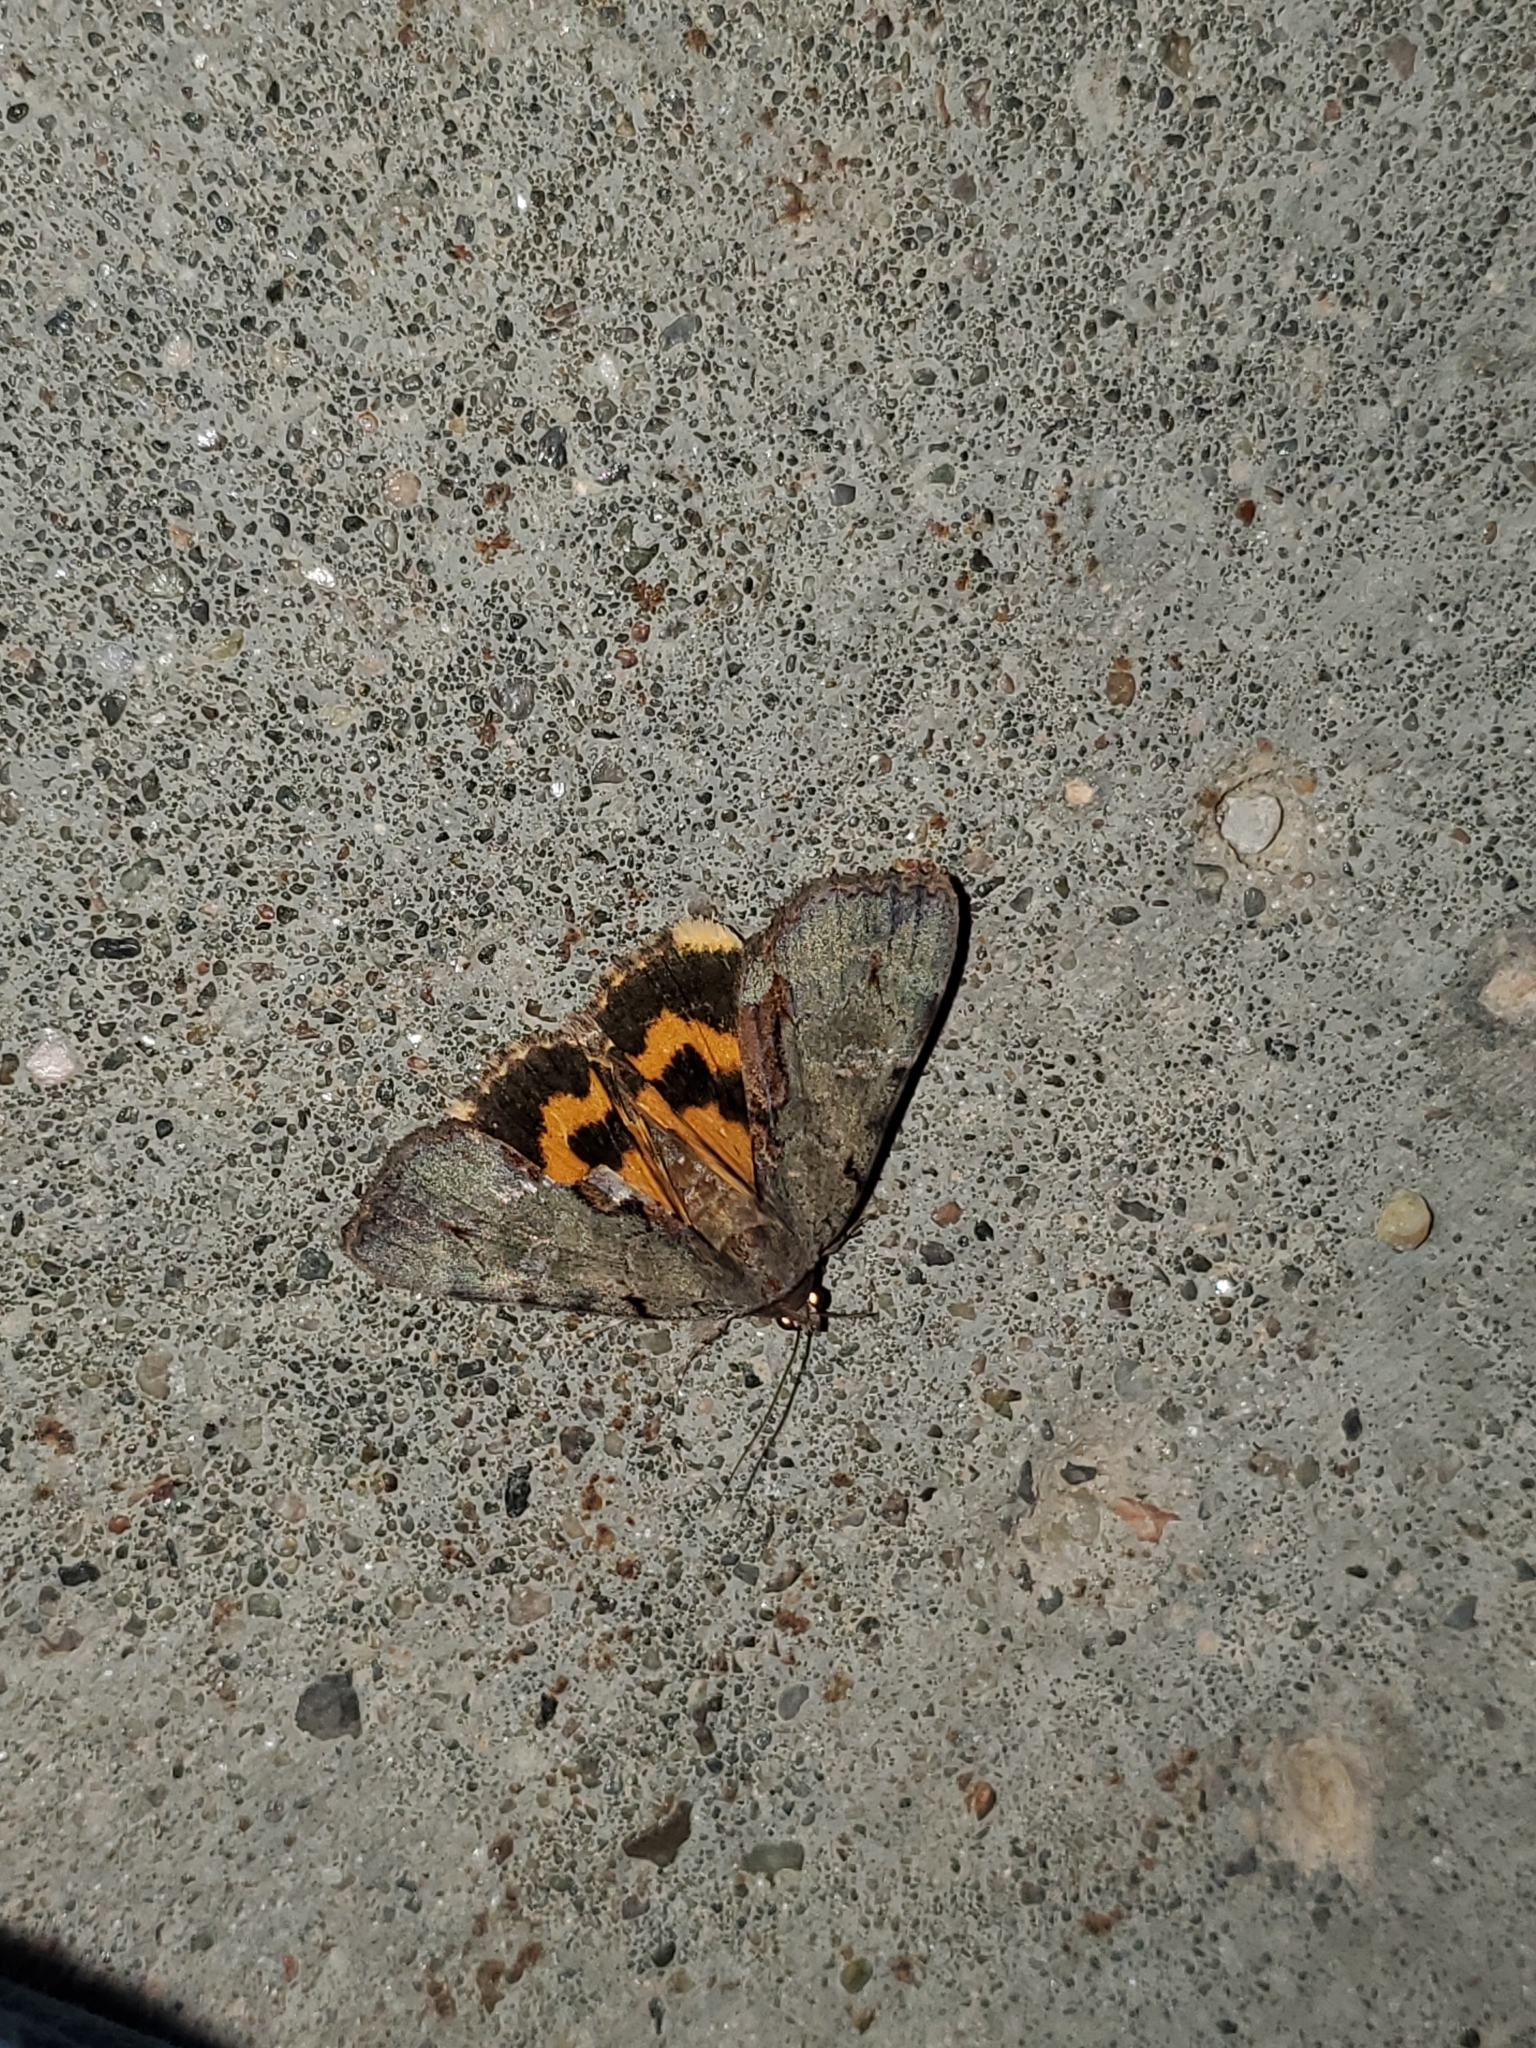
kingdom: Animalia
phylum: Arthropoda
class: Insecta
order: Lepidoptera
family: Erebidae
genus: Catocala
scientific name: Catocala grynea
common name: Woody underwing
